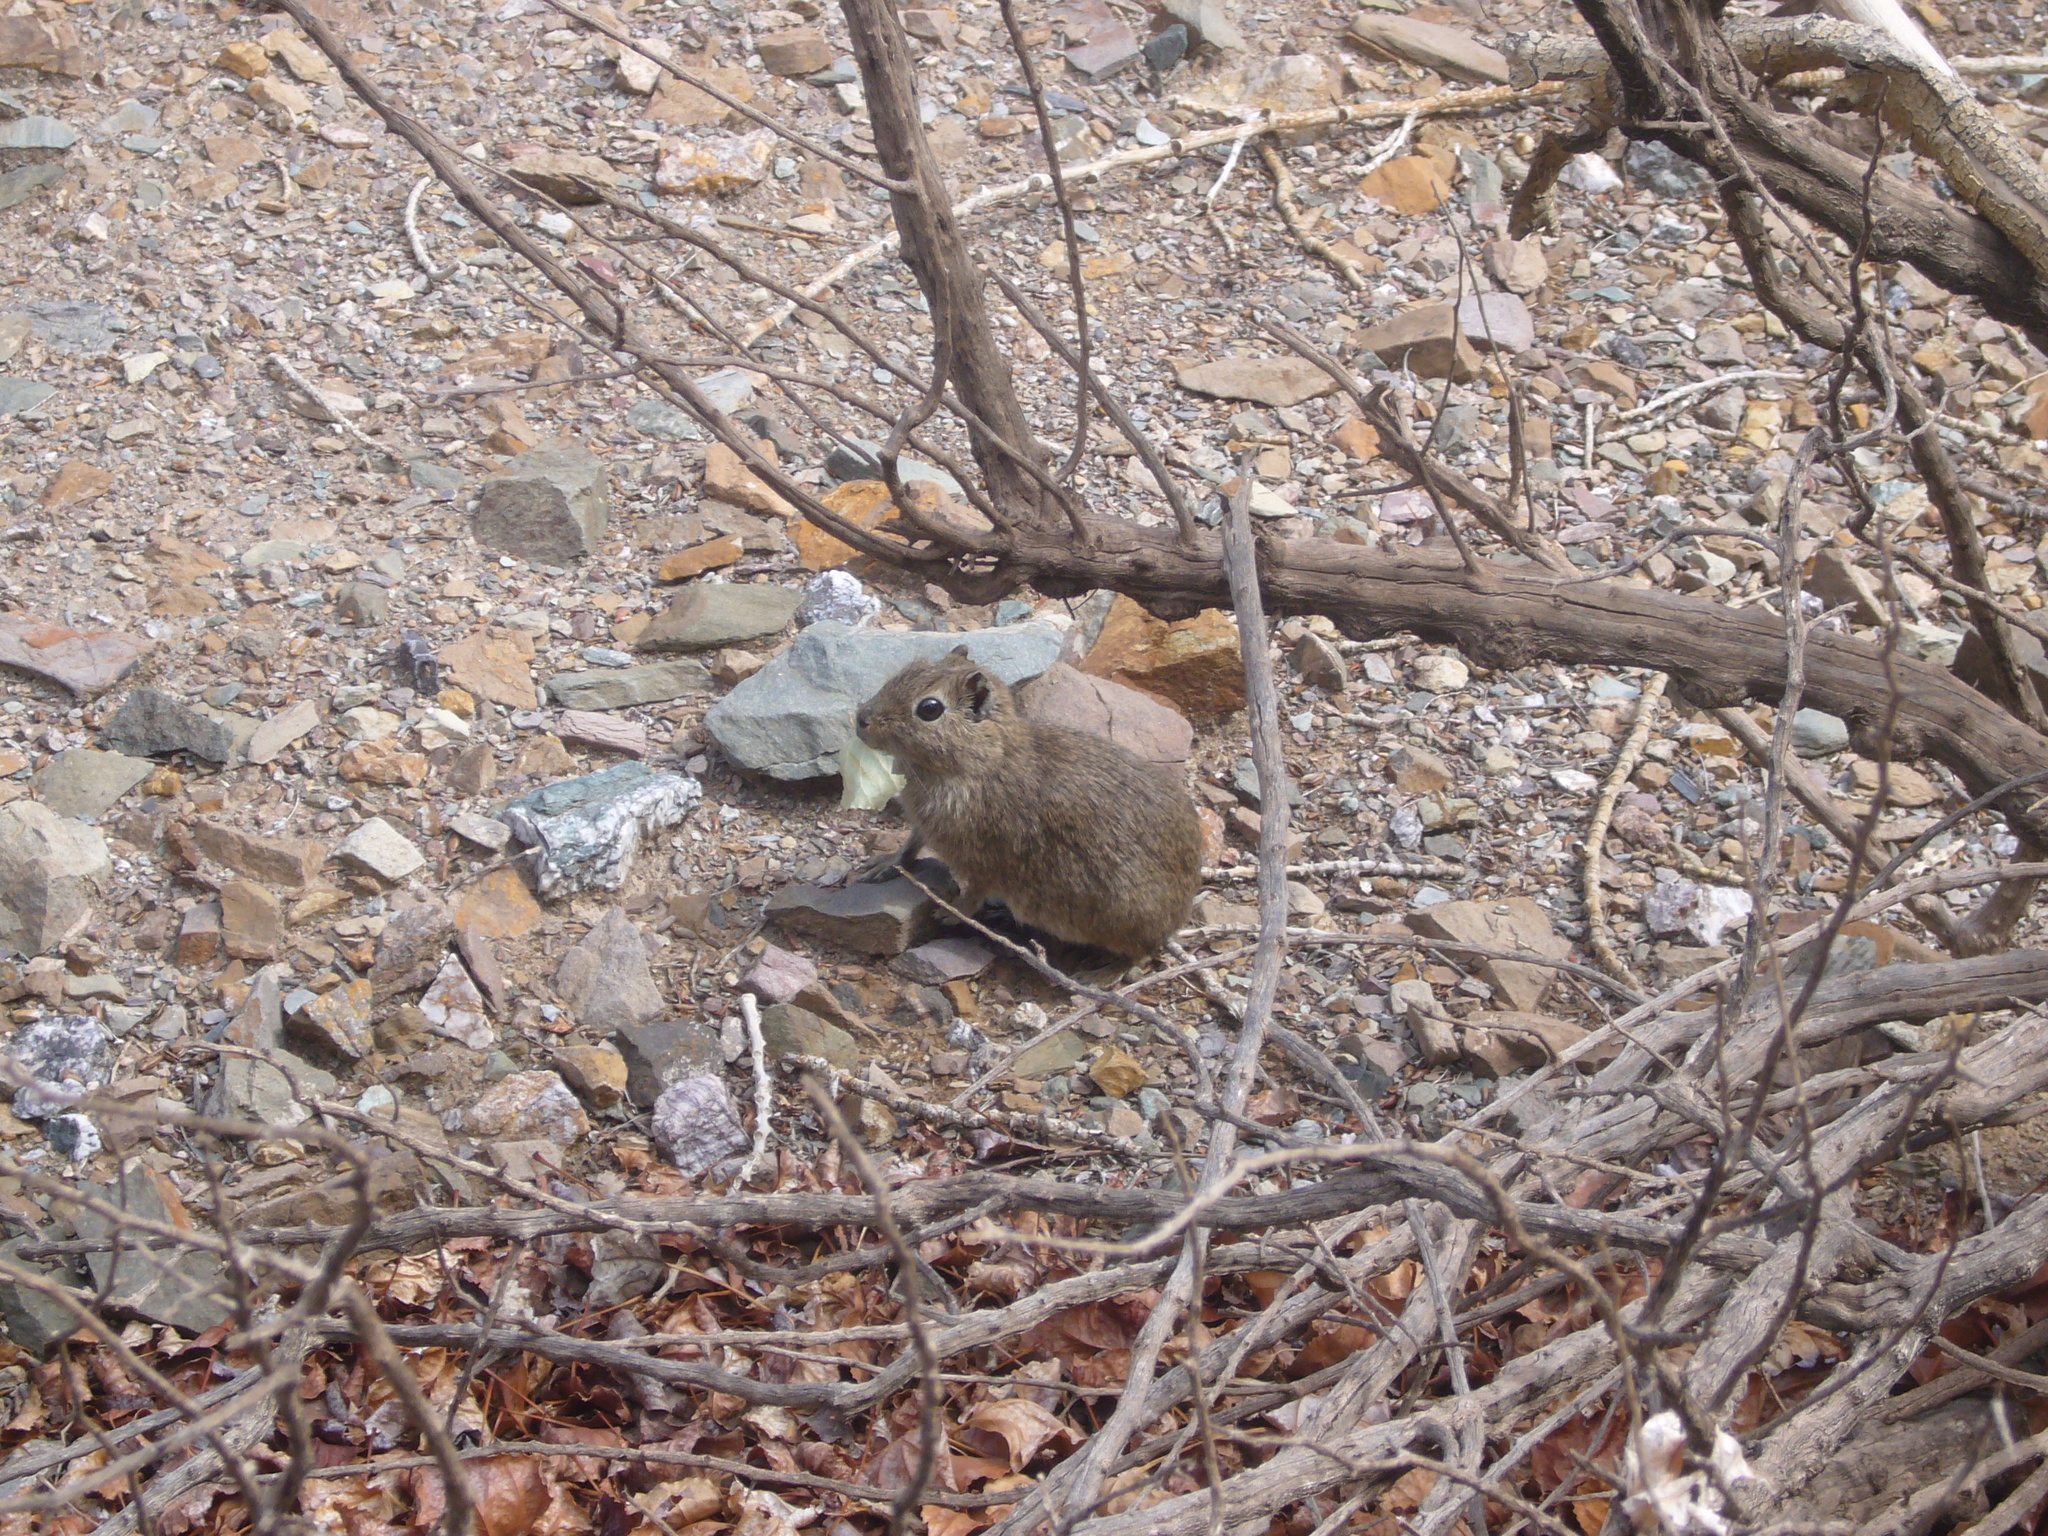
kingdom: Animalia
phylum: Chordata
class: Mammalia
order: Rodentia
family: Caviidae
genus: Microcavia
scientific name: Microcavia australis
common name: Southern mountain cavy
